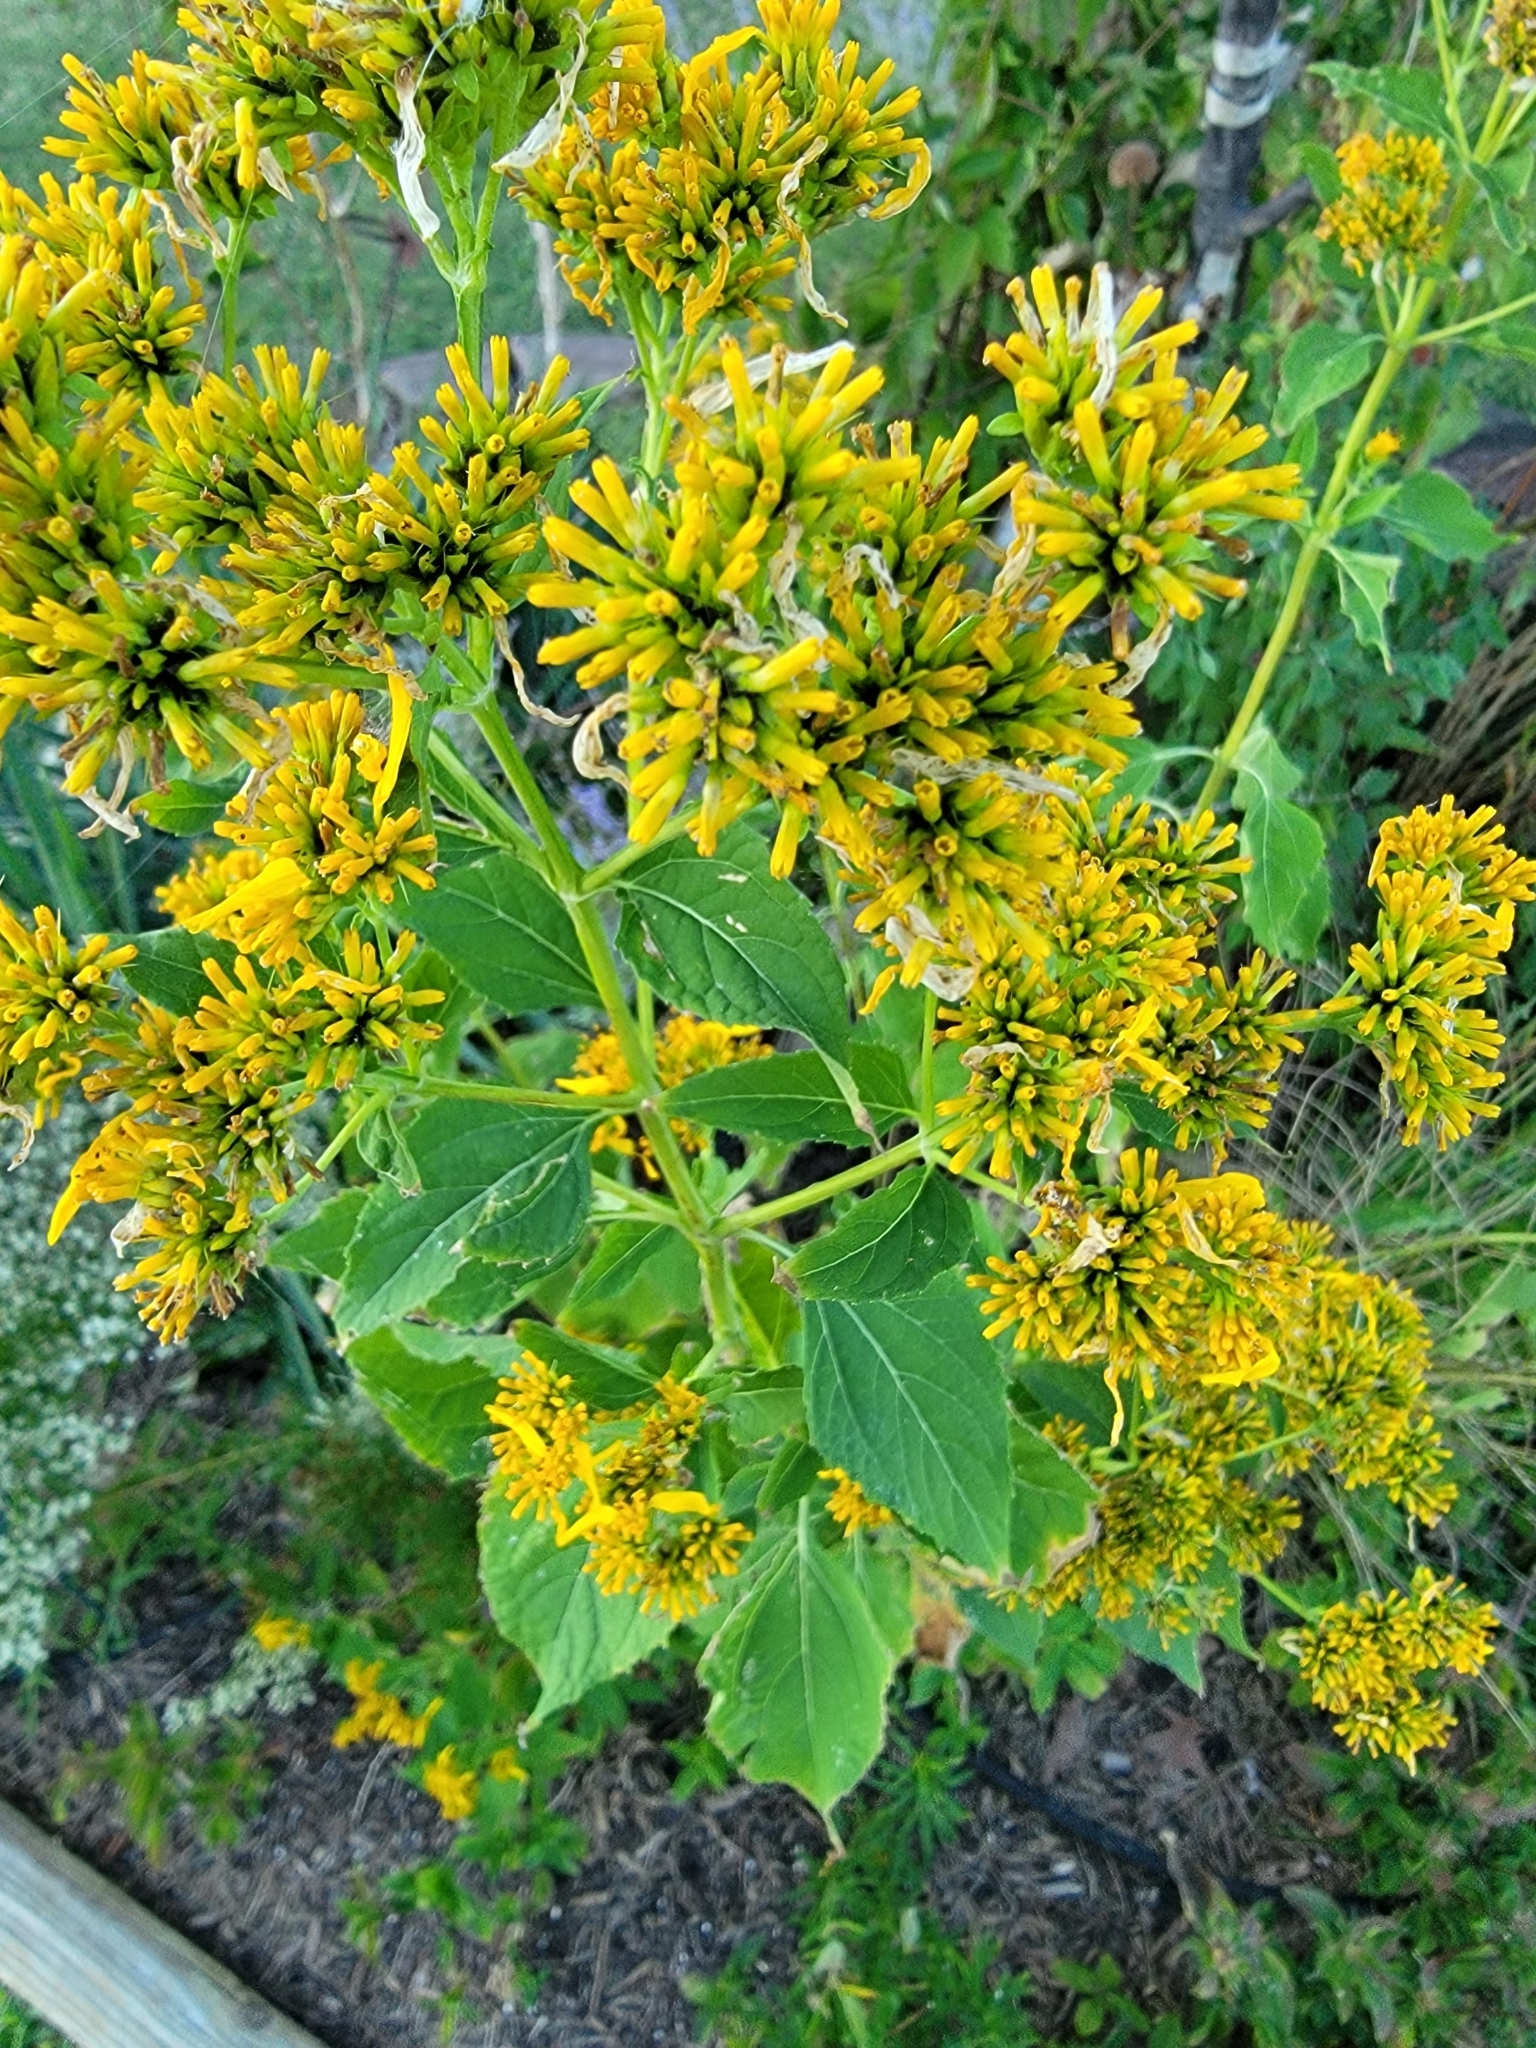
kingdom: Plantae
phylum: Tracheophyta
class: Magnoliopsida
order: Asterales
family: Asteraceae
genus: Verbesina
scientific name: Verbesina occidentalis
